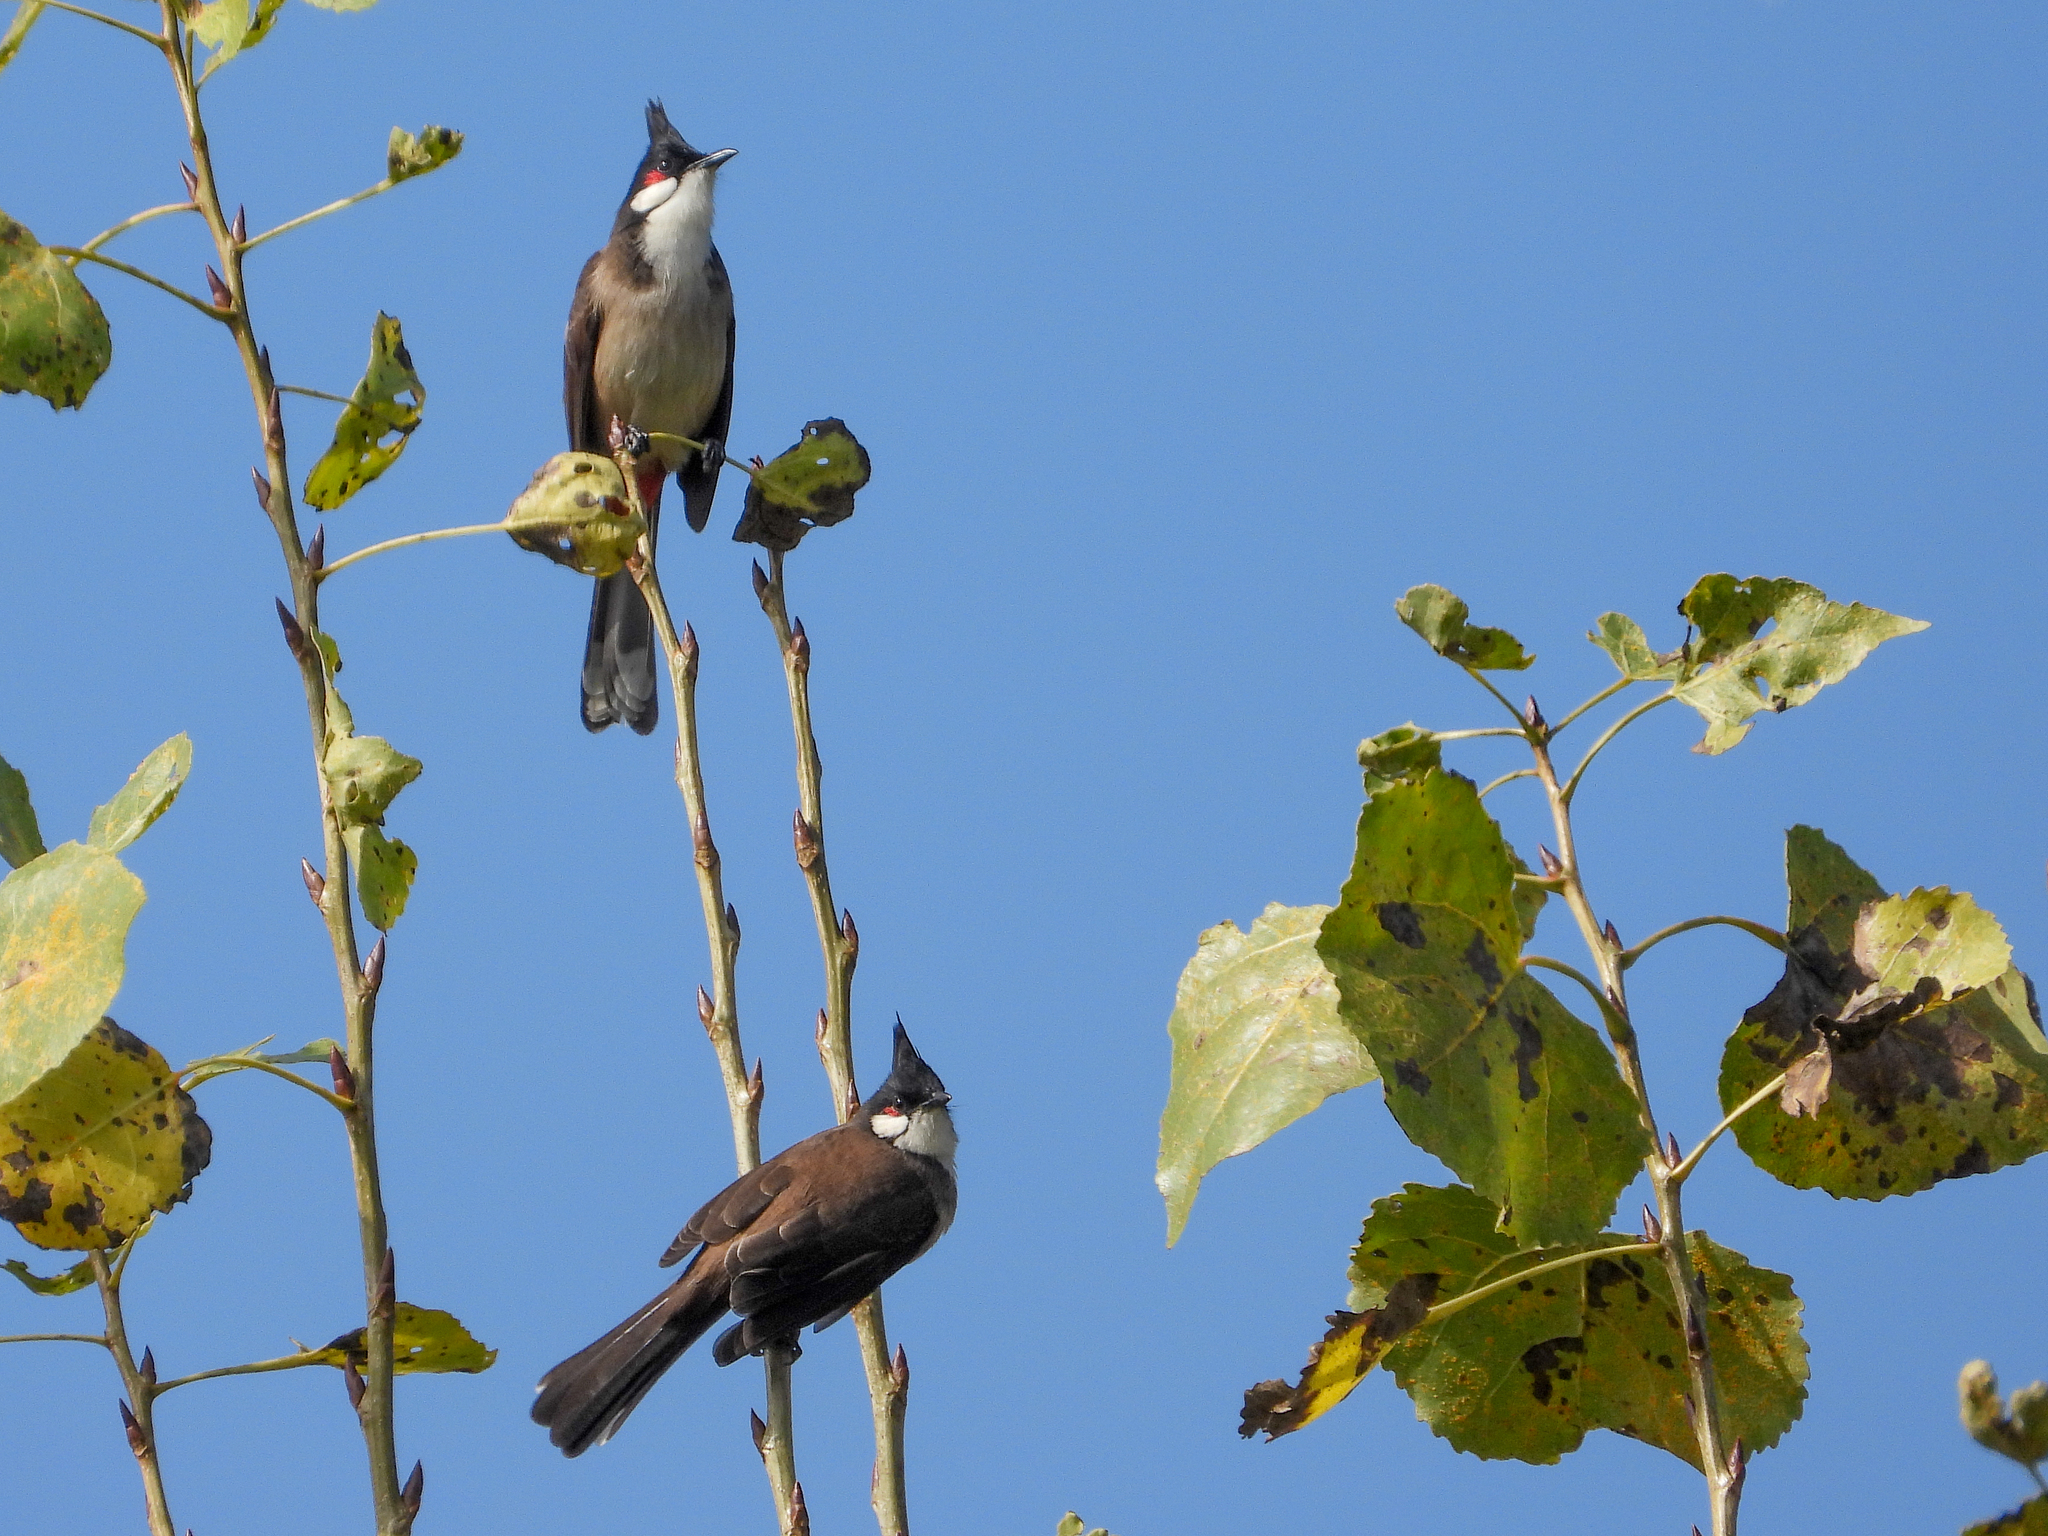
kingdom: Animalia
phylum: Chordata
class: Aves
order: Passeriformes
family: Pycnonotidae
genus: Pycnonotus
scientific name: Pycnonotus jocosus
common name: Red-whiskered bulbul
